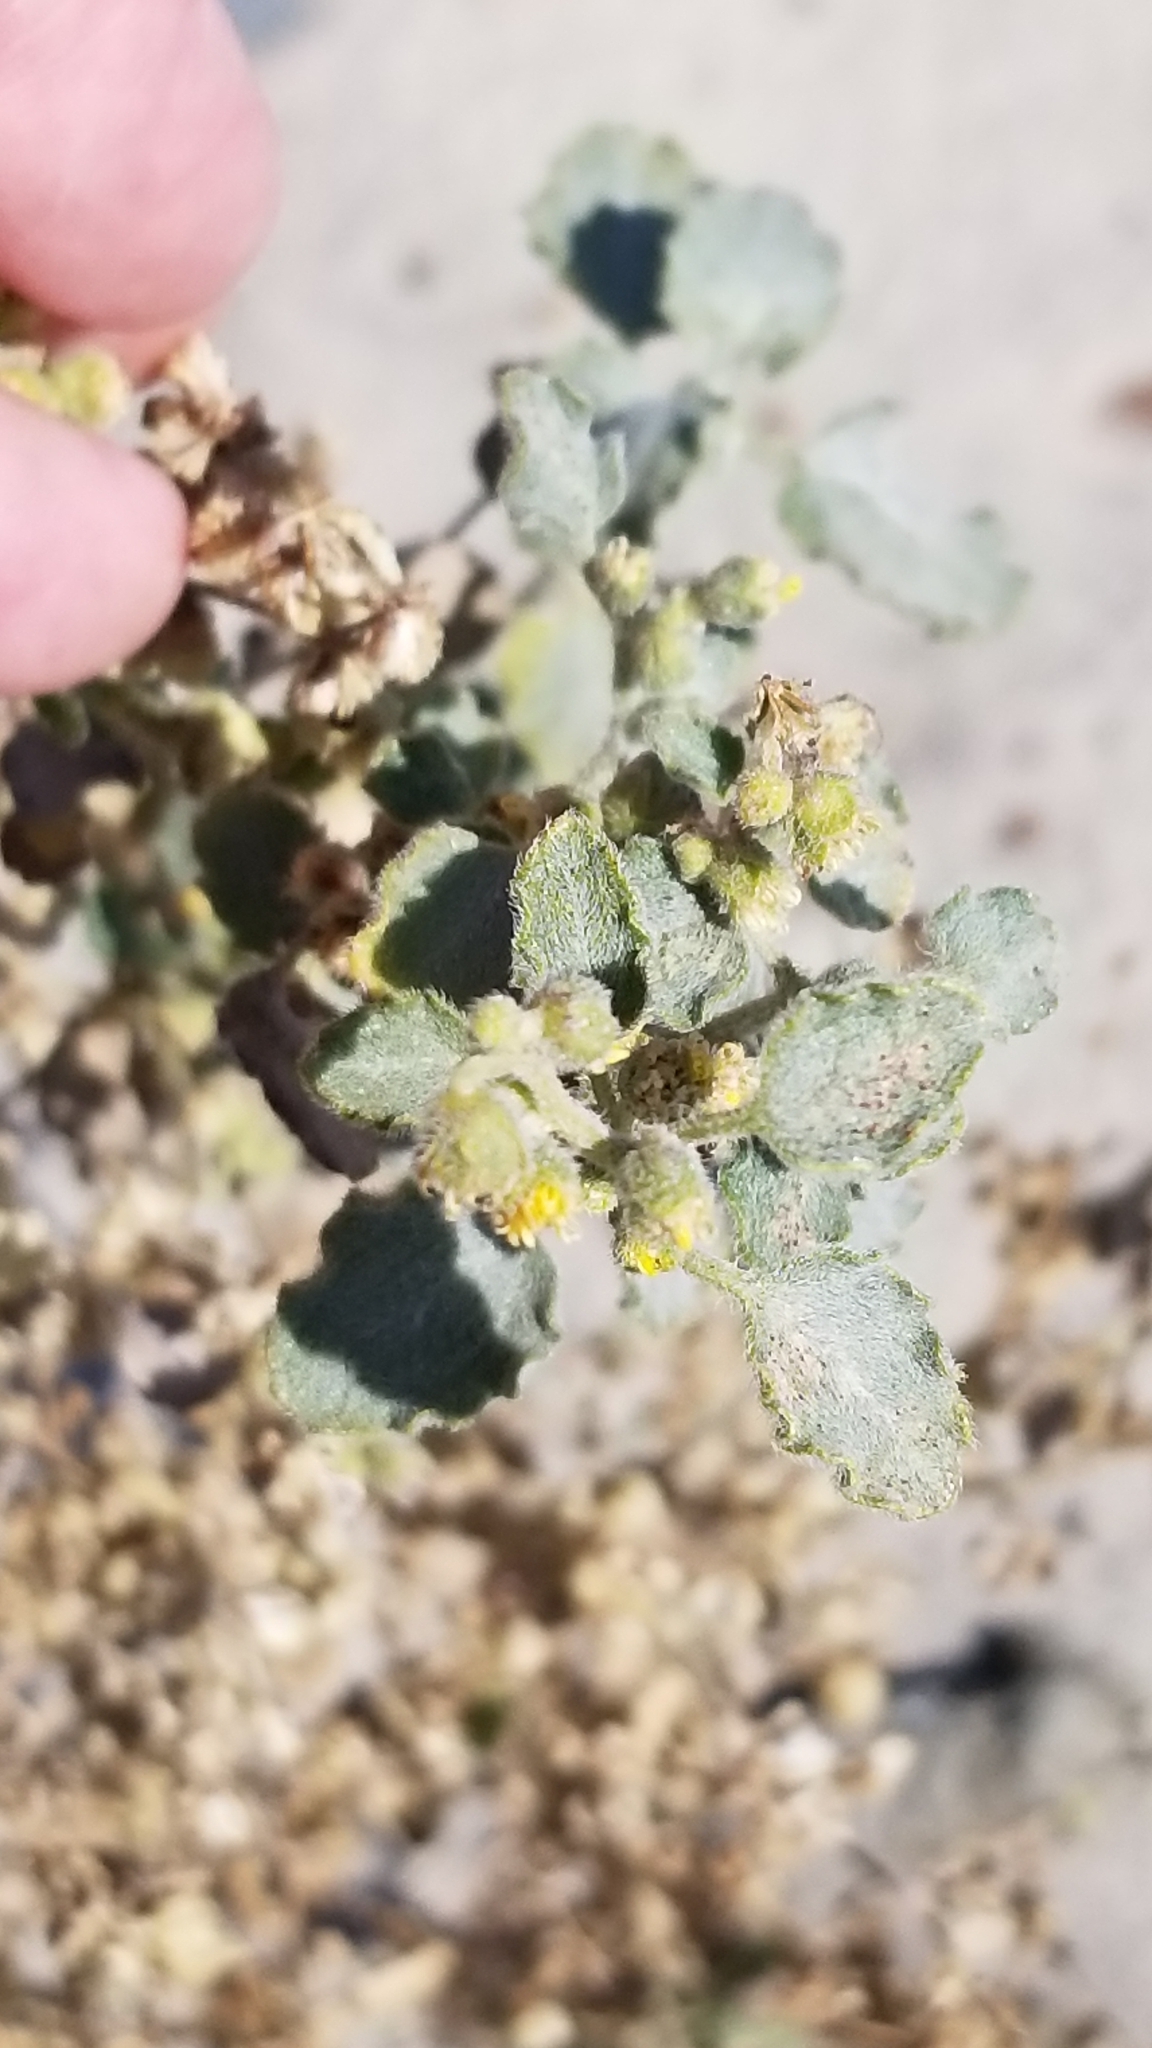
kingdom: Plantae
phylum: Tracheophyta
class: Magnoliopsida
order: Asterales
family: Asteraceae
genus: Dicoria
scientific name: Dicoria canescens
